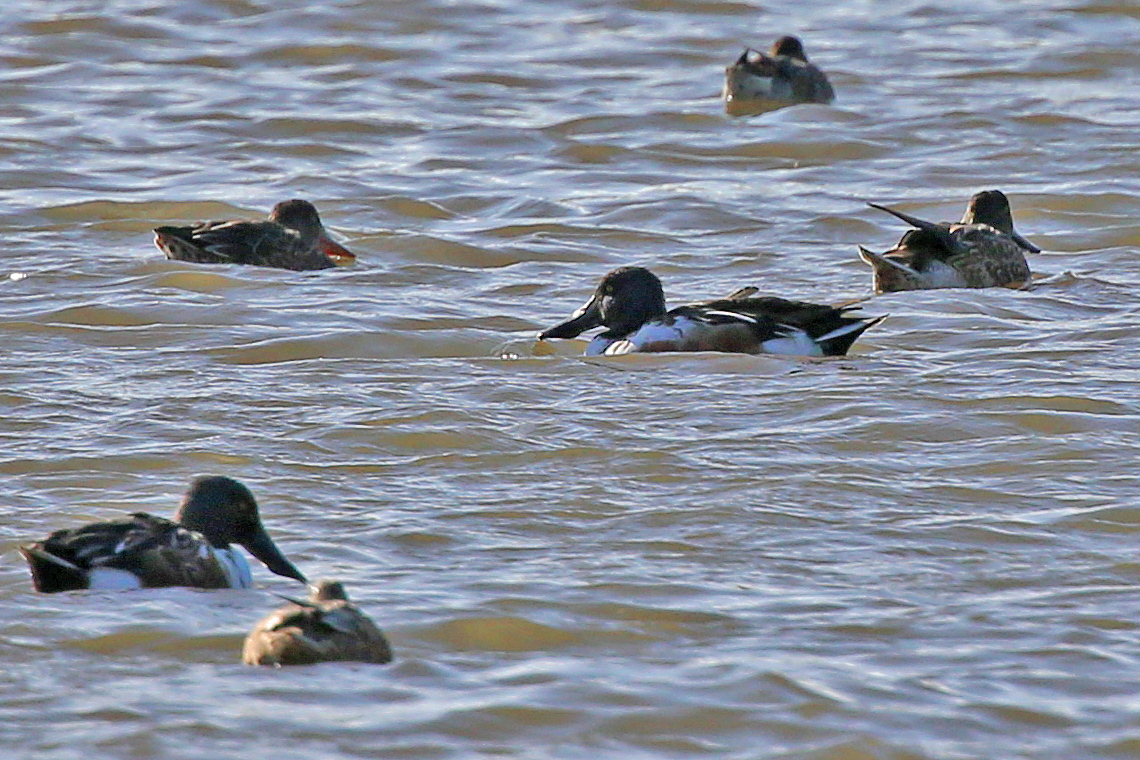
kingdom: Animalia
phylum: Chordata
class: Aves
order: Anseriformes
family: Anatidae
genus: Spatula
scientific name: Spatula clypeata
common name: Northern shoveler
